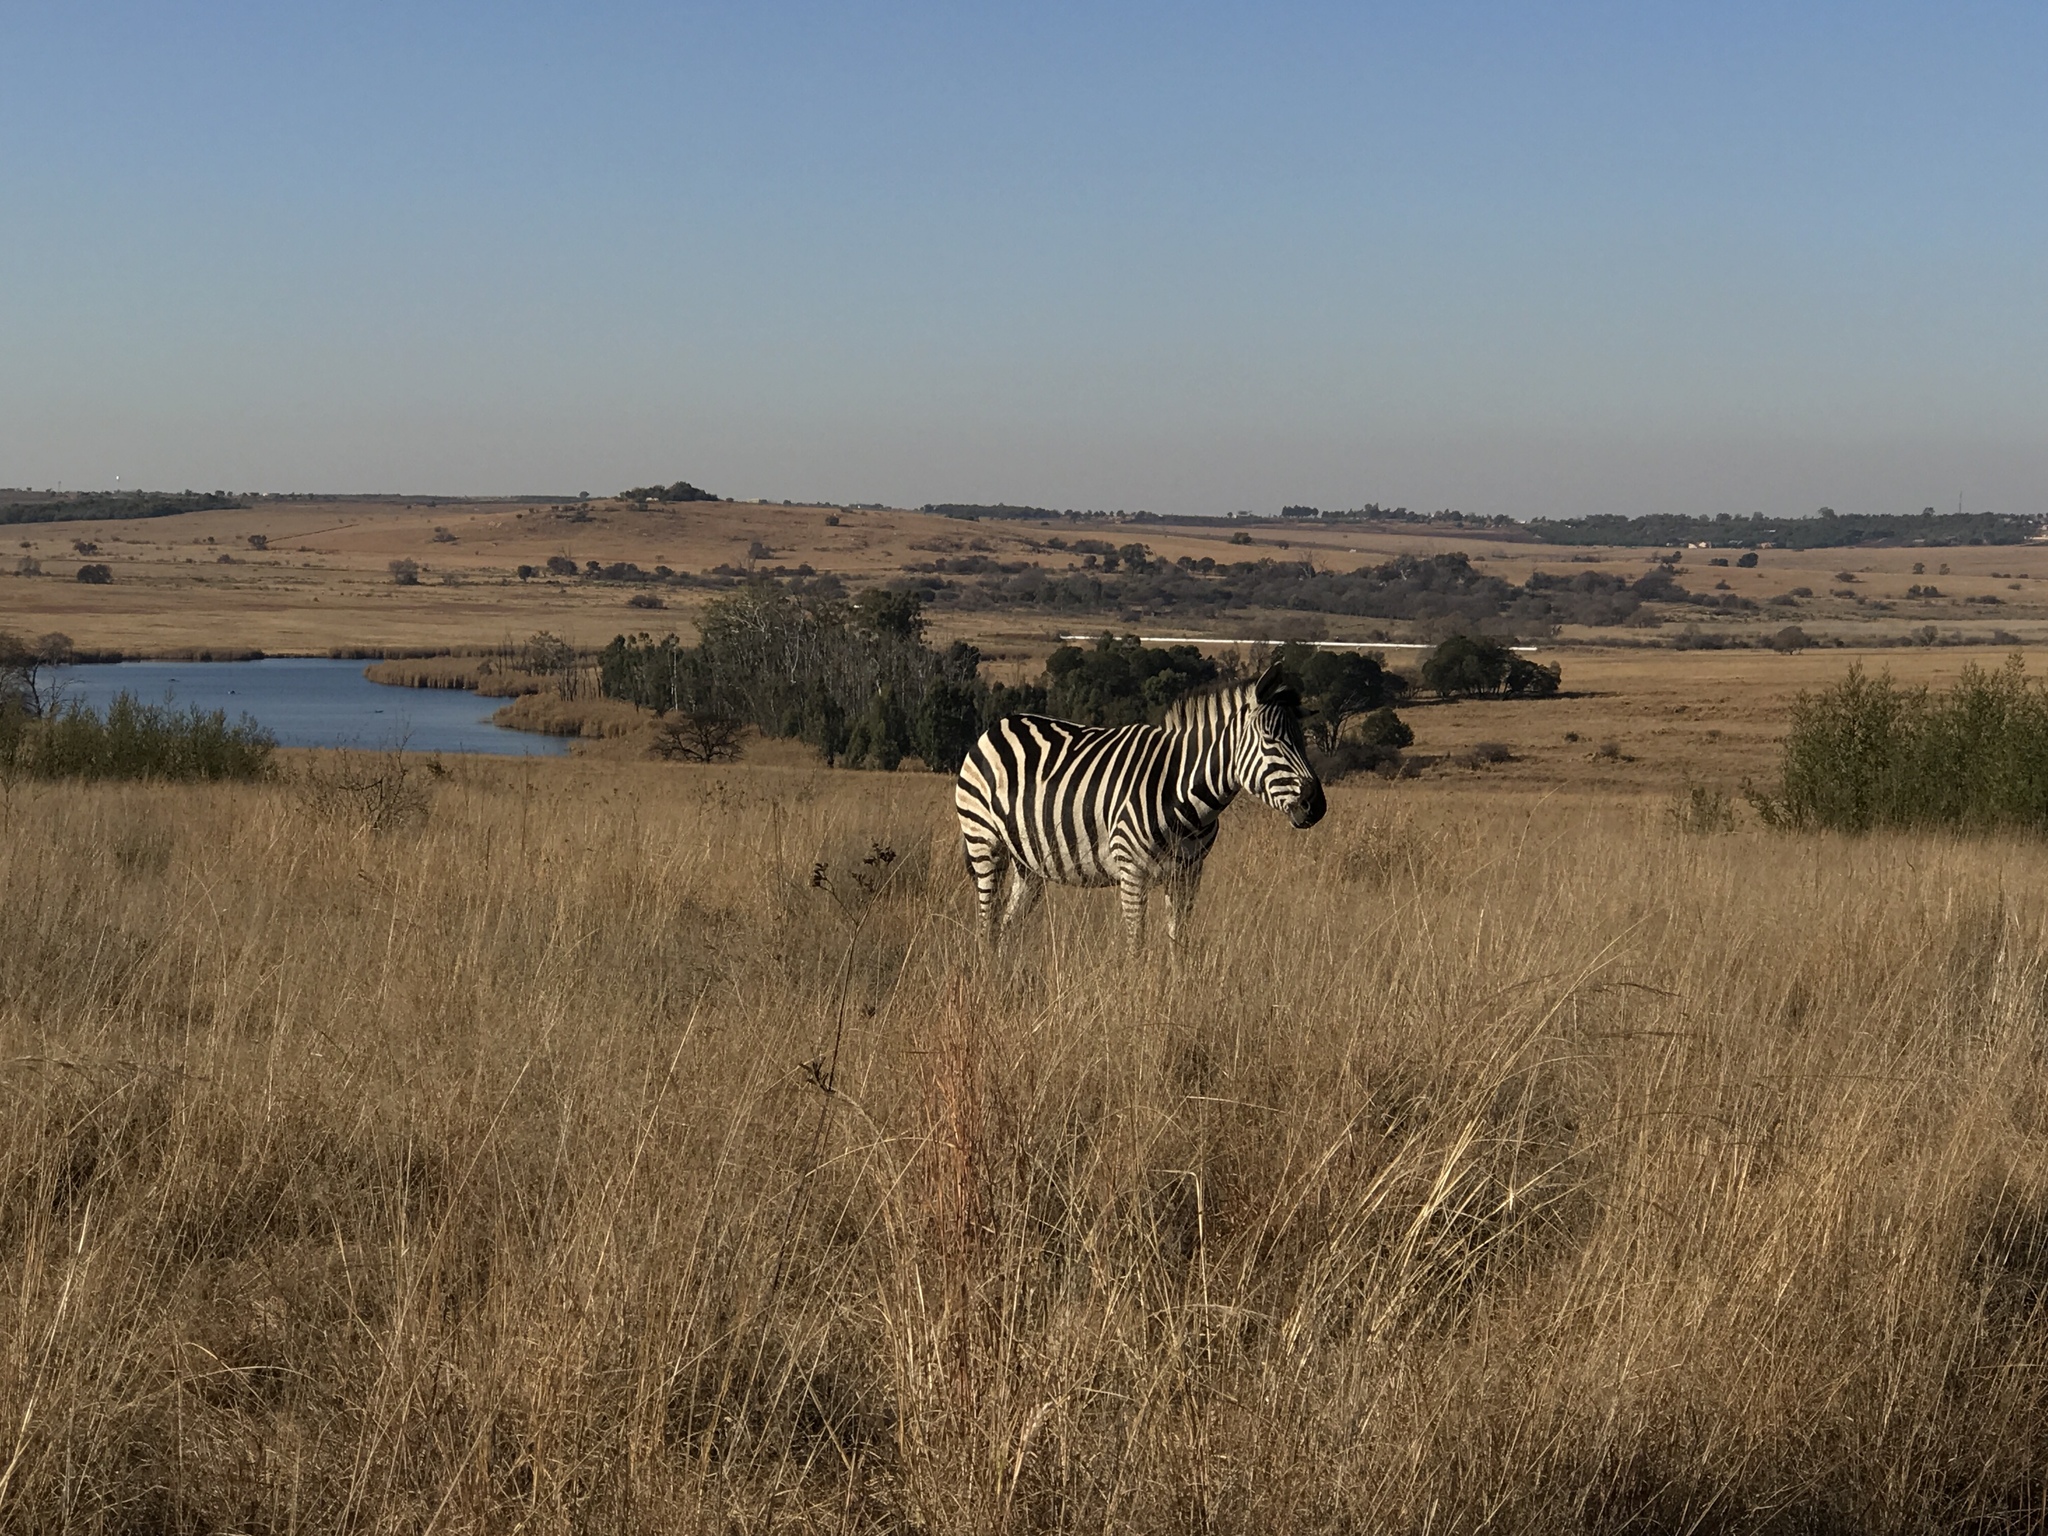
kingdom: Animalia
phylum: Chordata
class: Mammalia
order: Perissodactyla
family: Equidae
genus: Equus
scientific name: Equus quagga
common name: Plains zebra
